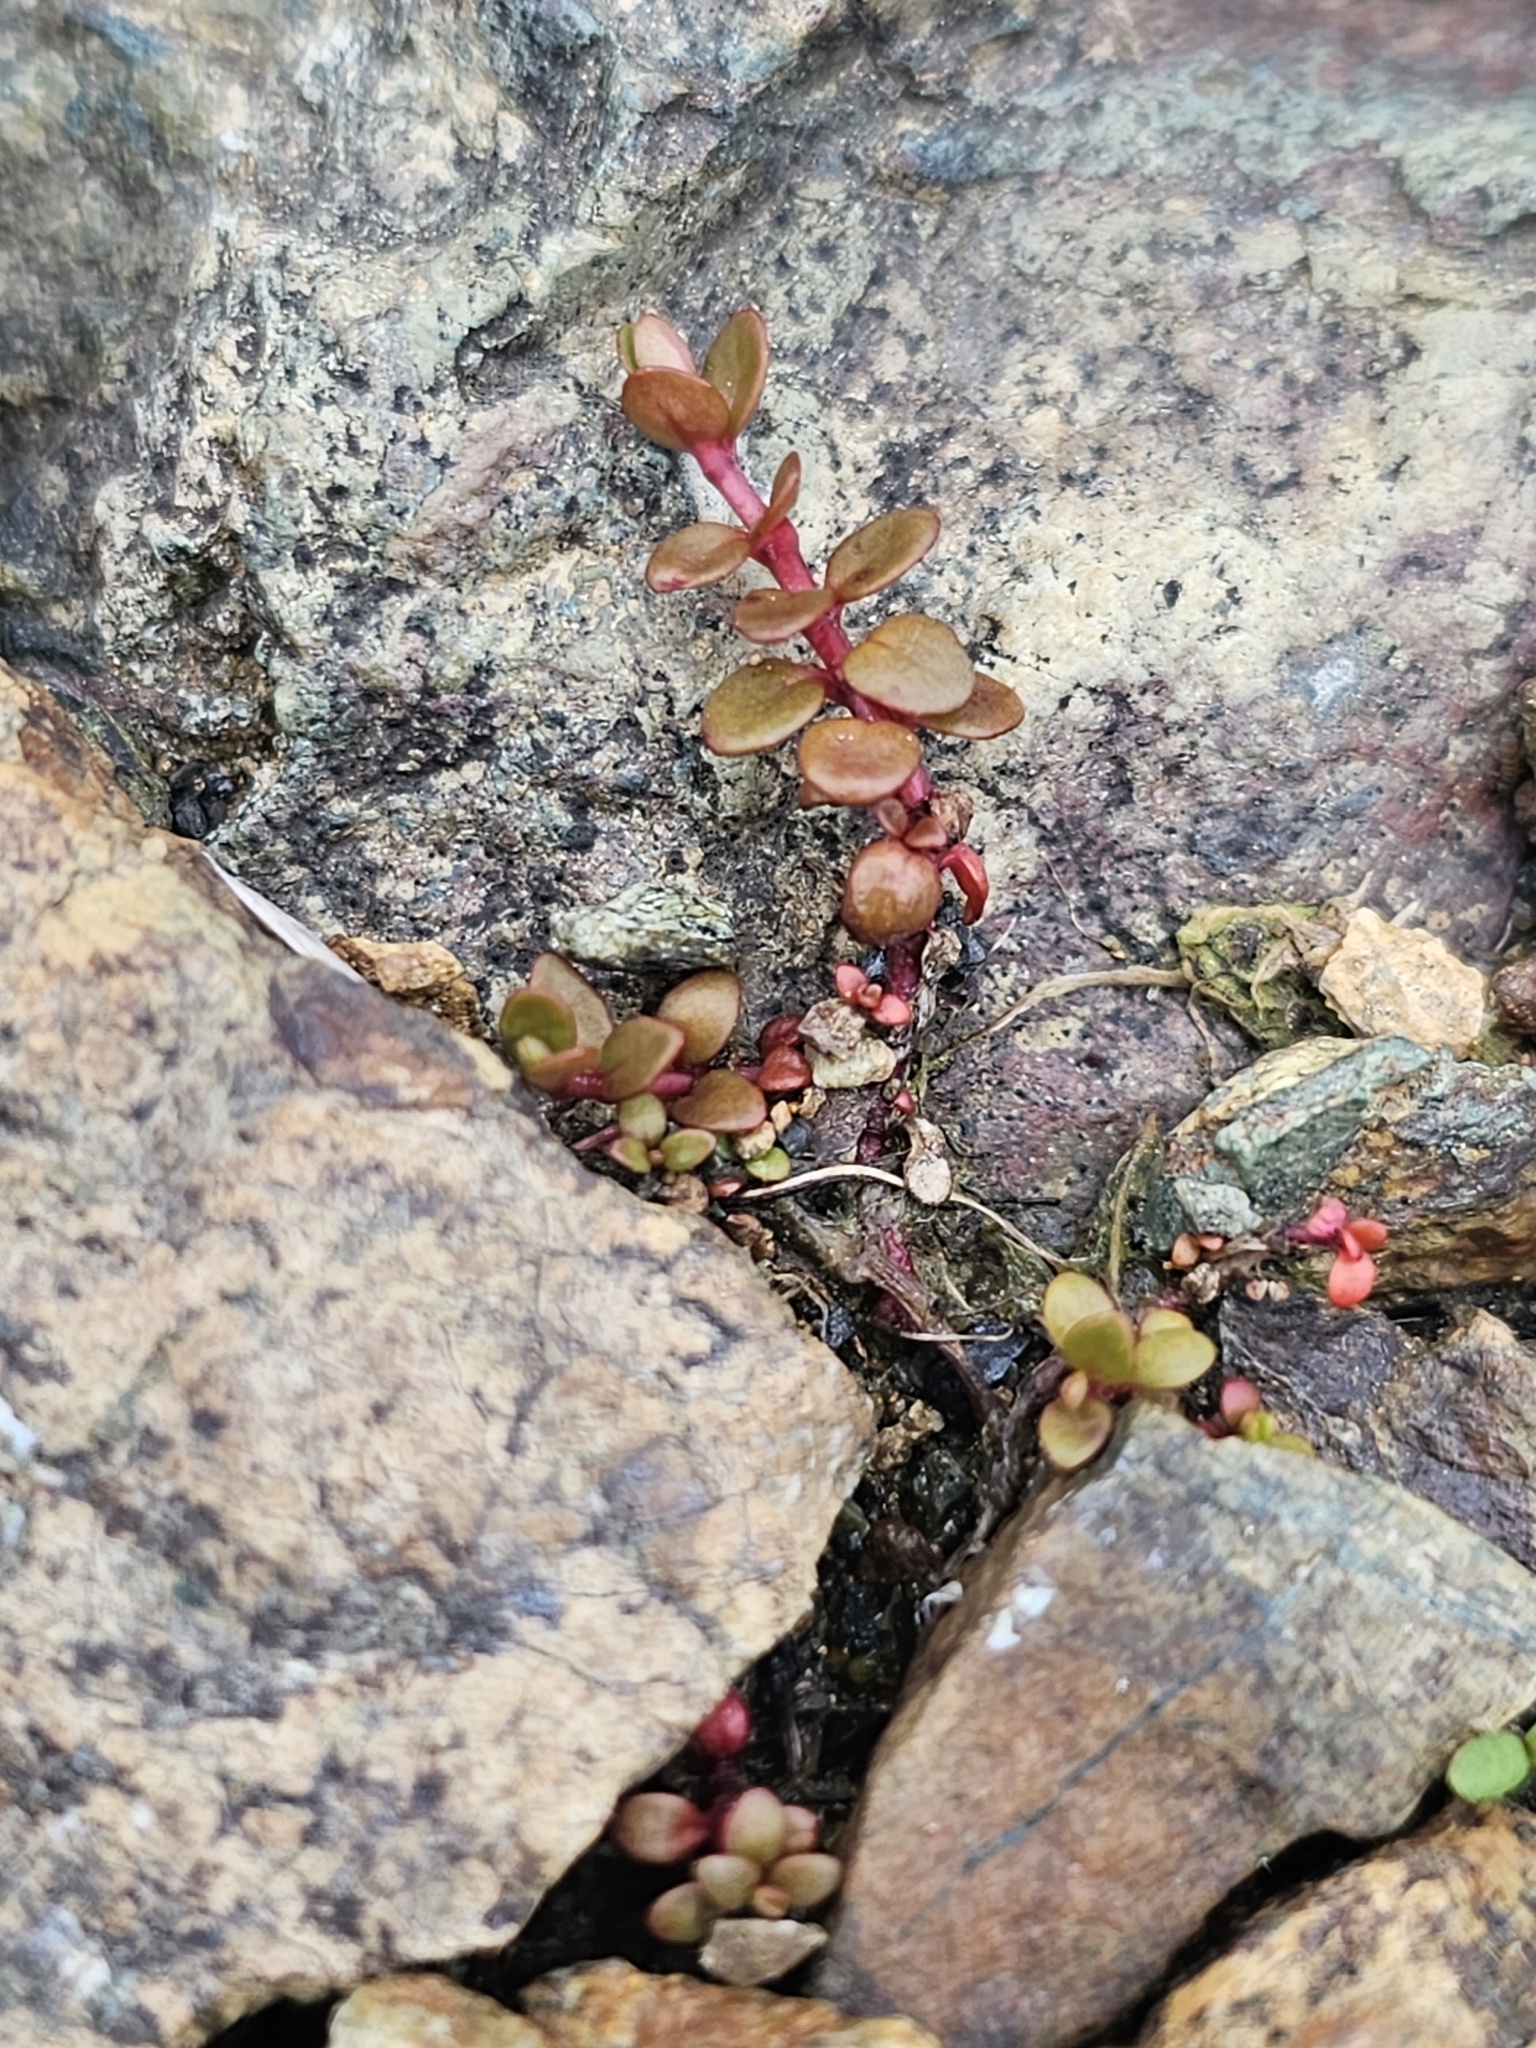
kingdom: Plantae
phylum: Tracheophyta
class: Magnoliopsida
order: Myrtales
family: Onagraceae
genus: Epilobium
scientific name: Epilobium brunnescens
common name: New zealand willowherb
